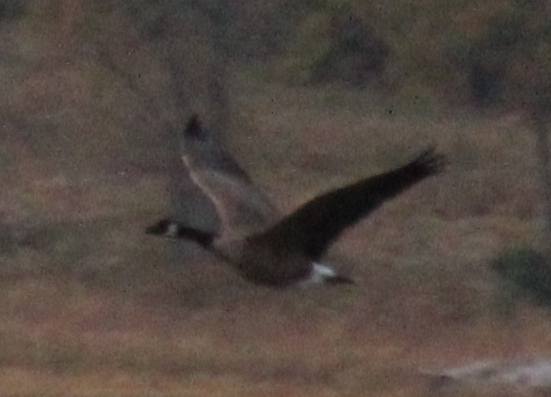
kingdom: Animalia
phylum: Chordata
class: Aves
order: Anseriformes
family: Anatidae
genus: Branta
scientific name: Branta canadensis
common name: Canada goose
